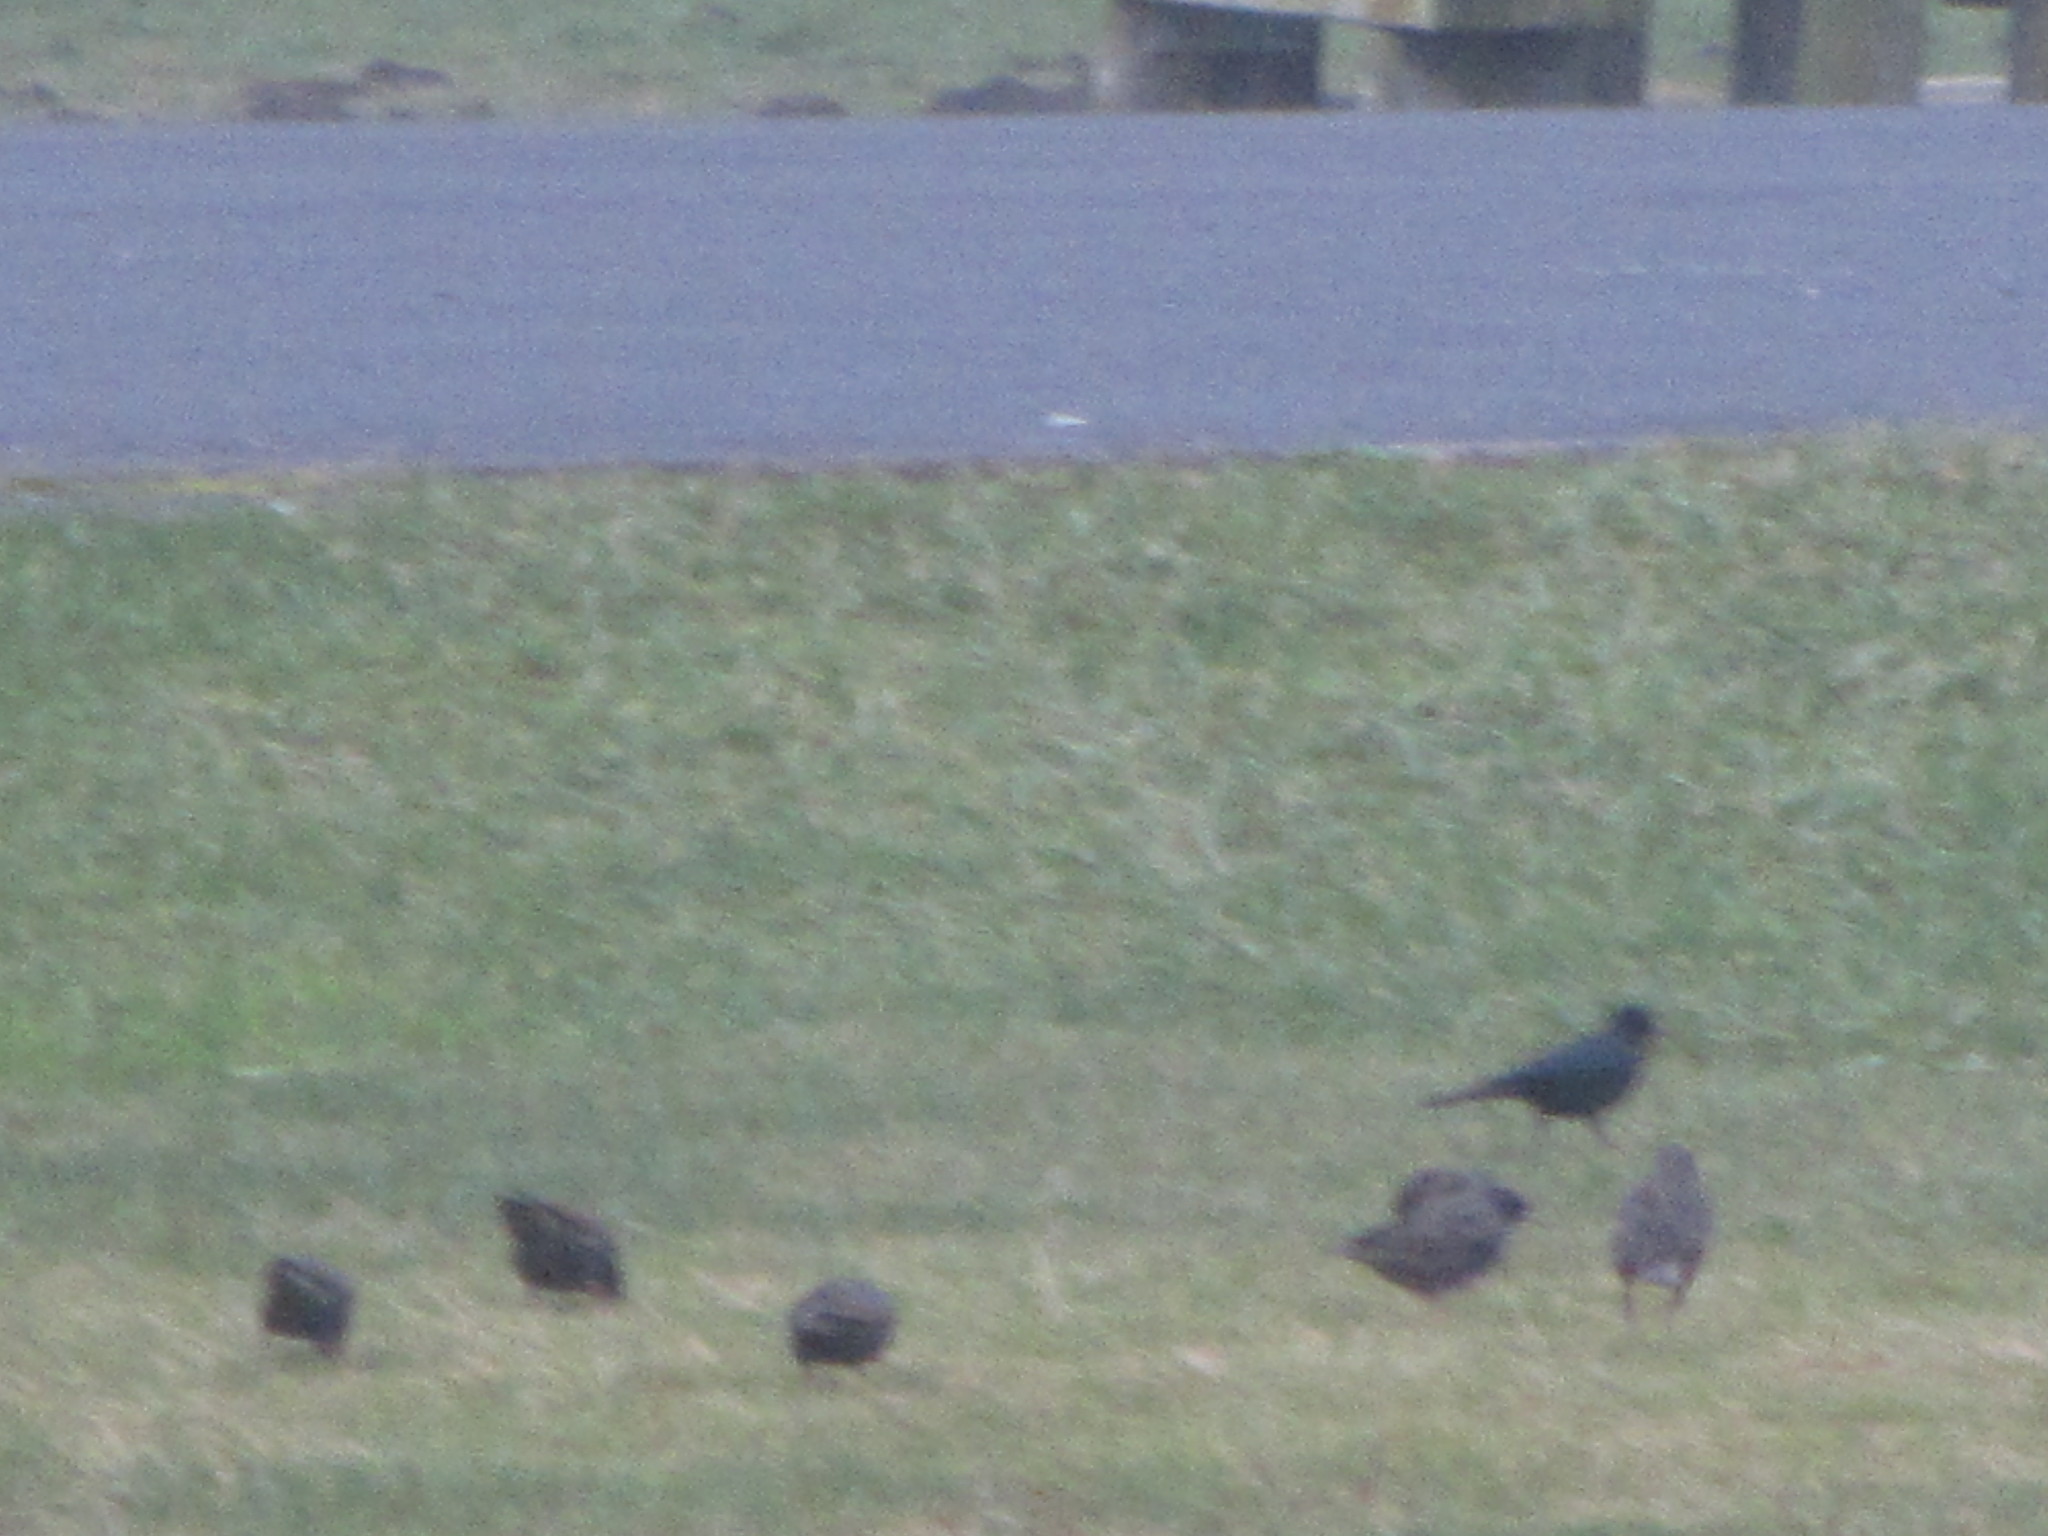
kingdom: Animalia
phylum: Chordata
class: Aves
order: Passeriformes
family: Sturnidae
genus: Sturnus
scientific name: Sturnus vulgaris
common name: Common starling
